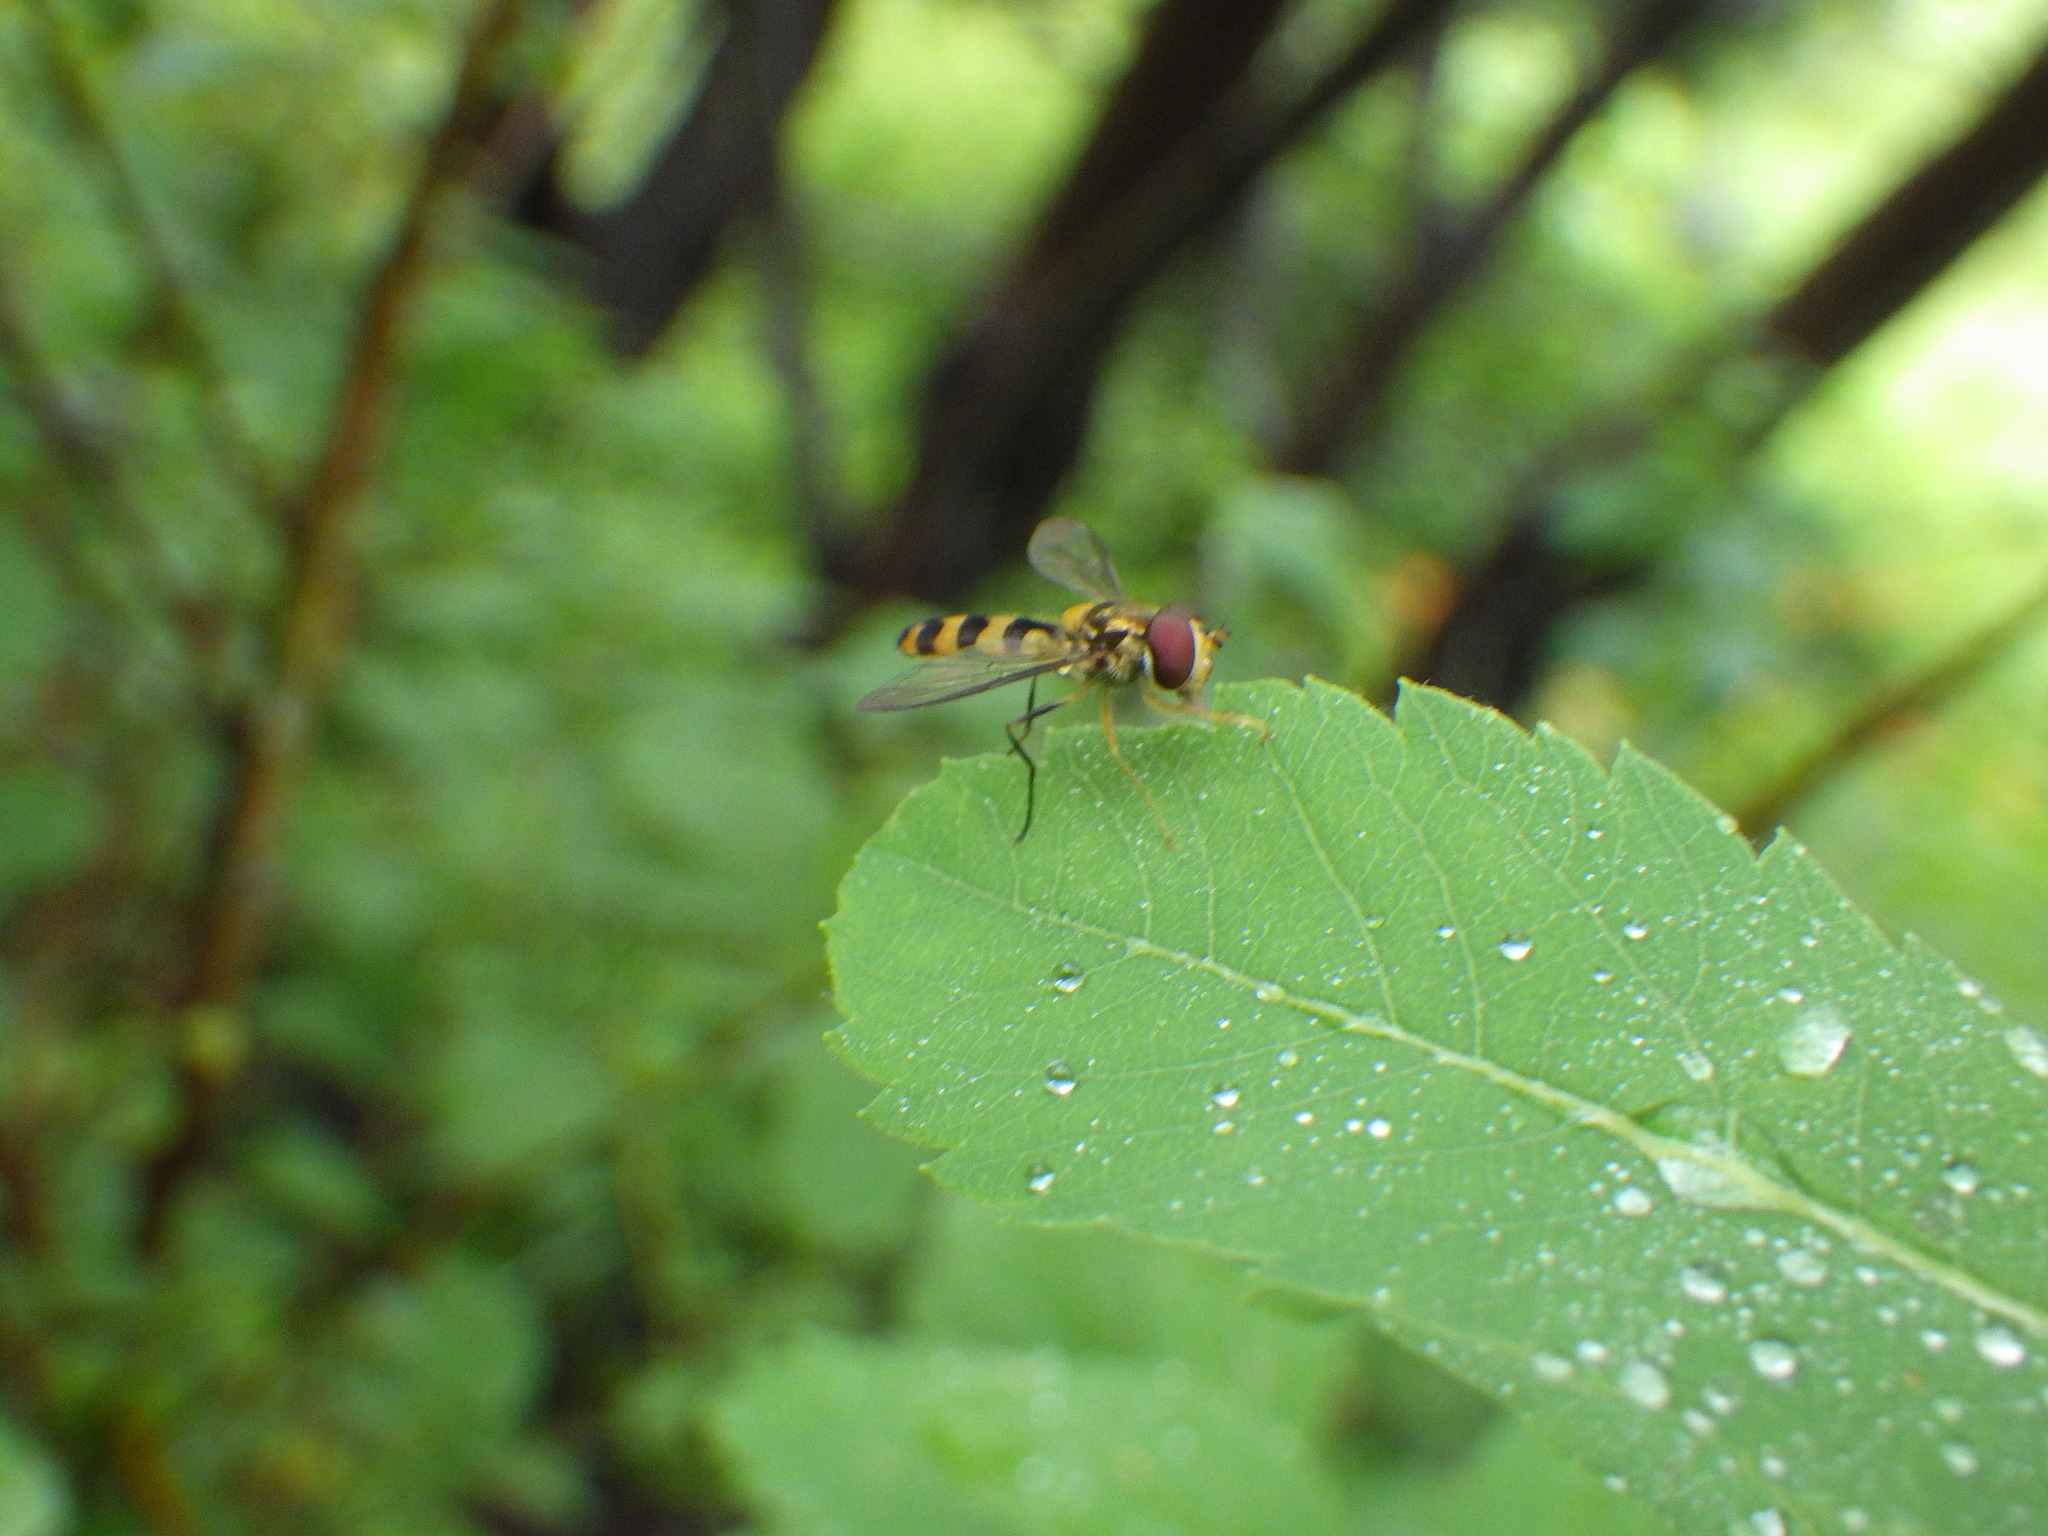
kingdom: Animalia
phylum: Arthropoda
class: Insecta
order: Diptera
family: Syrphidae
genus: Meliscaeva
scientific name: Meliscaeva cinctella
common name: American thintail fly
